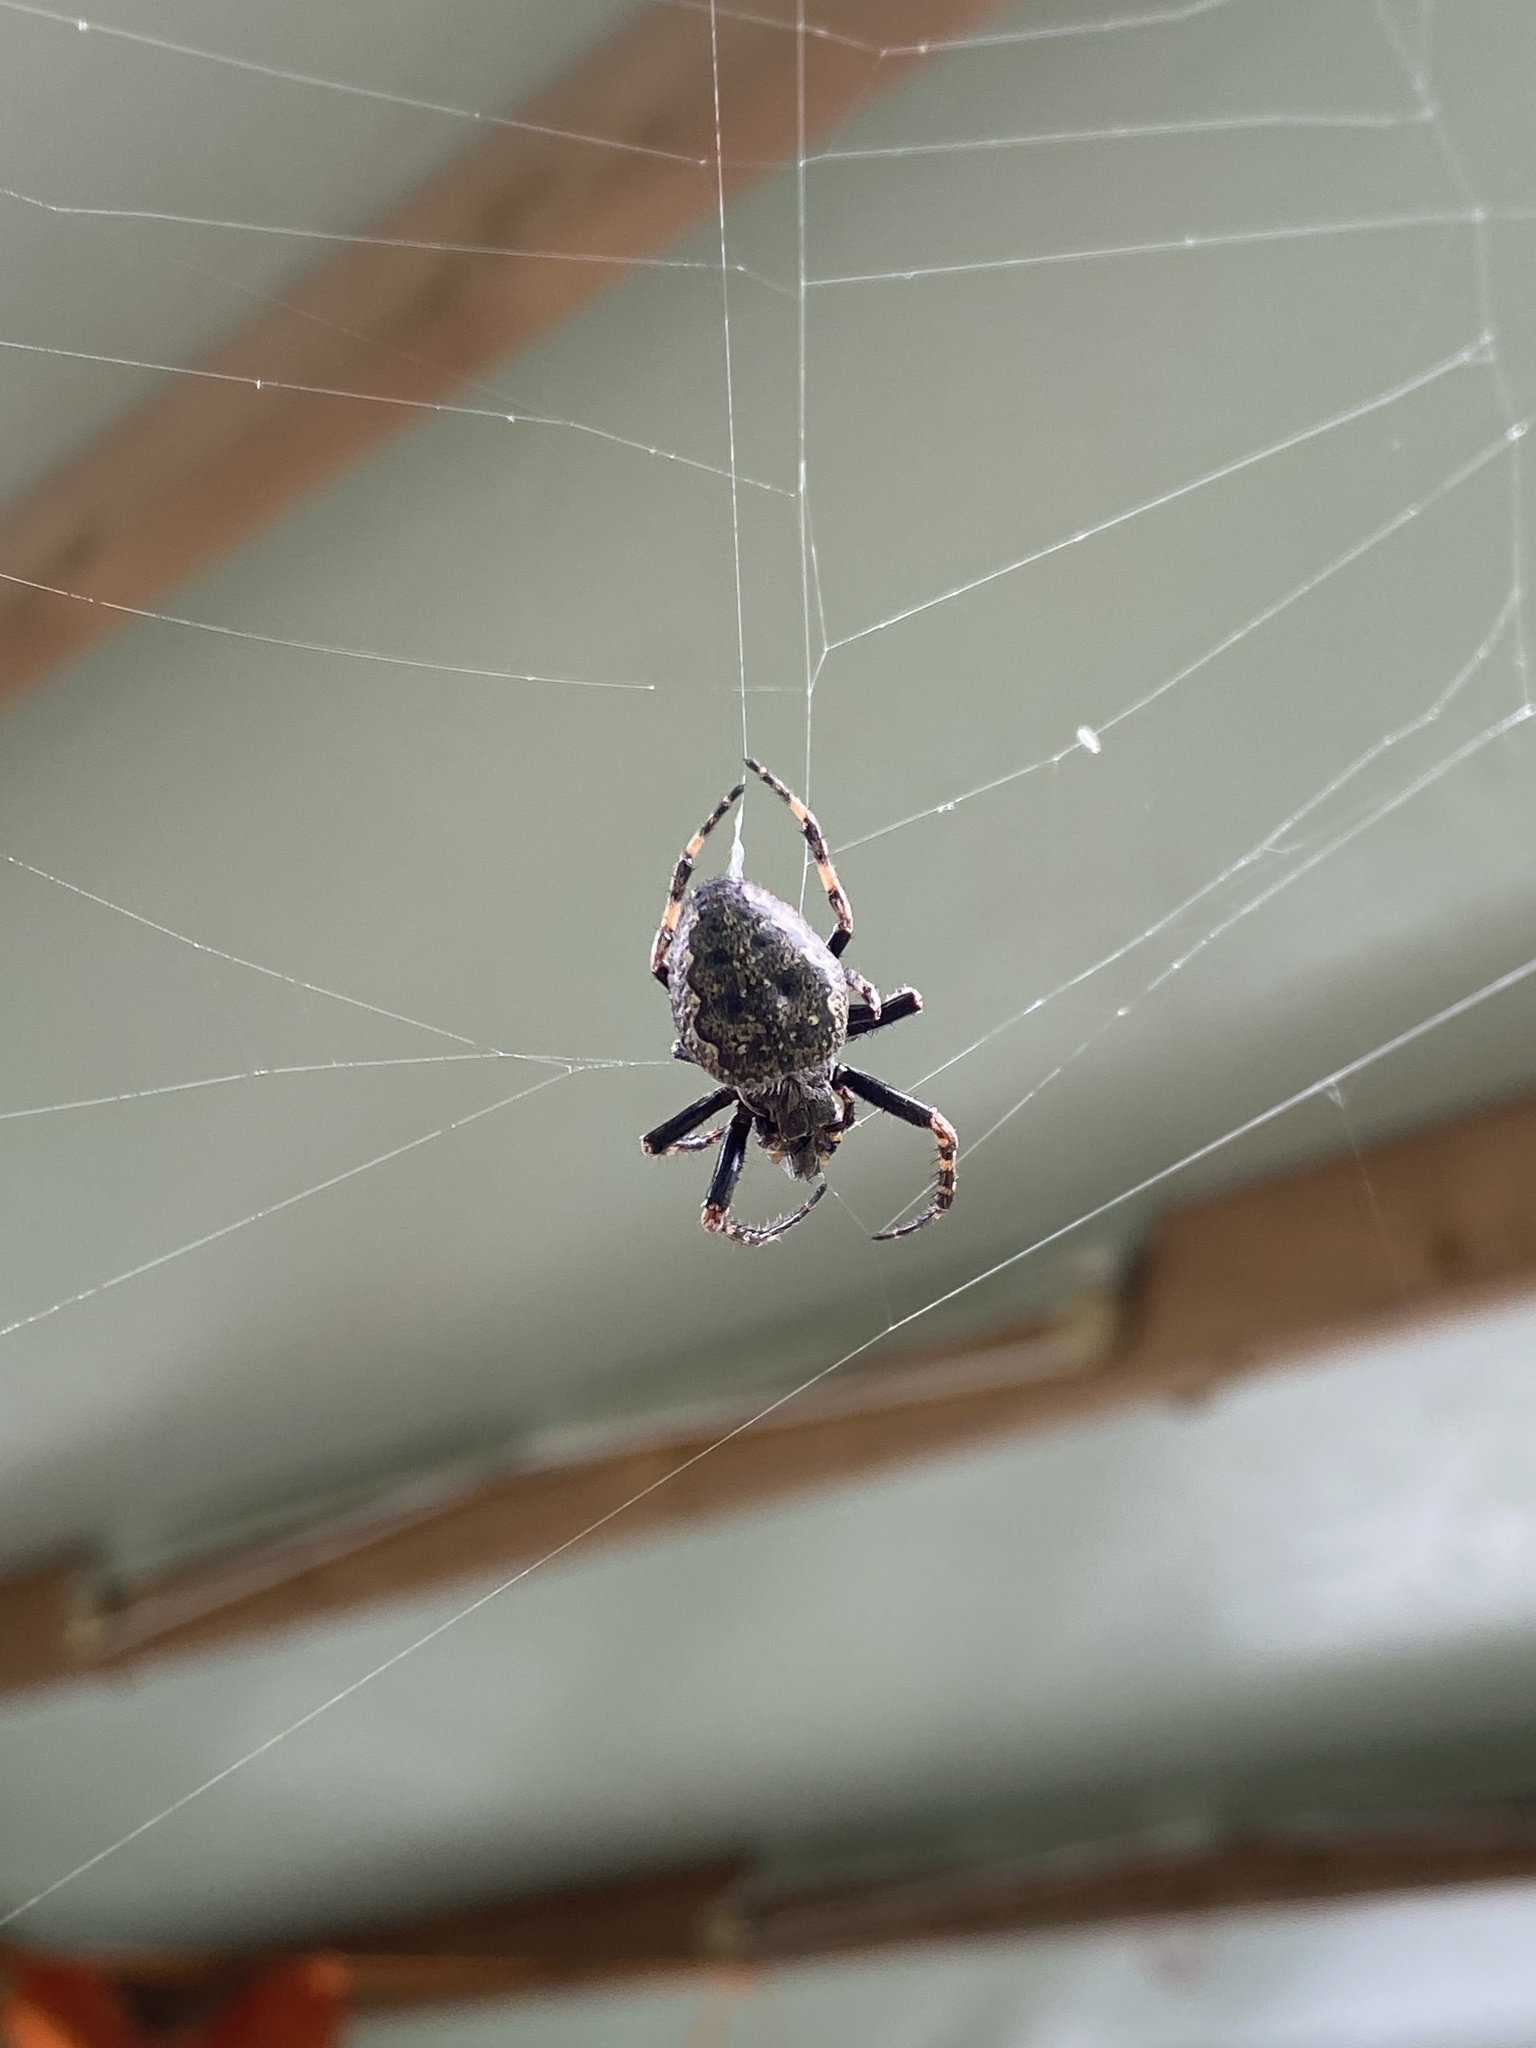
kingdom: Animalia
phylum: Arthropoda
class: Arachnida
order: Araneae
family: Araneidae
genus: Nuctenea
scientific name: Nuctenea umbratica
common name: Toad spider
